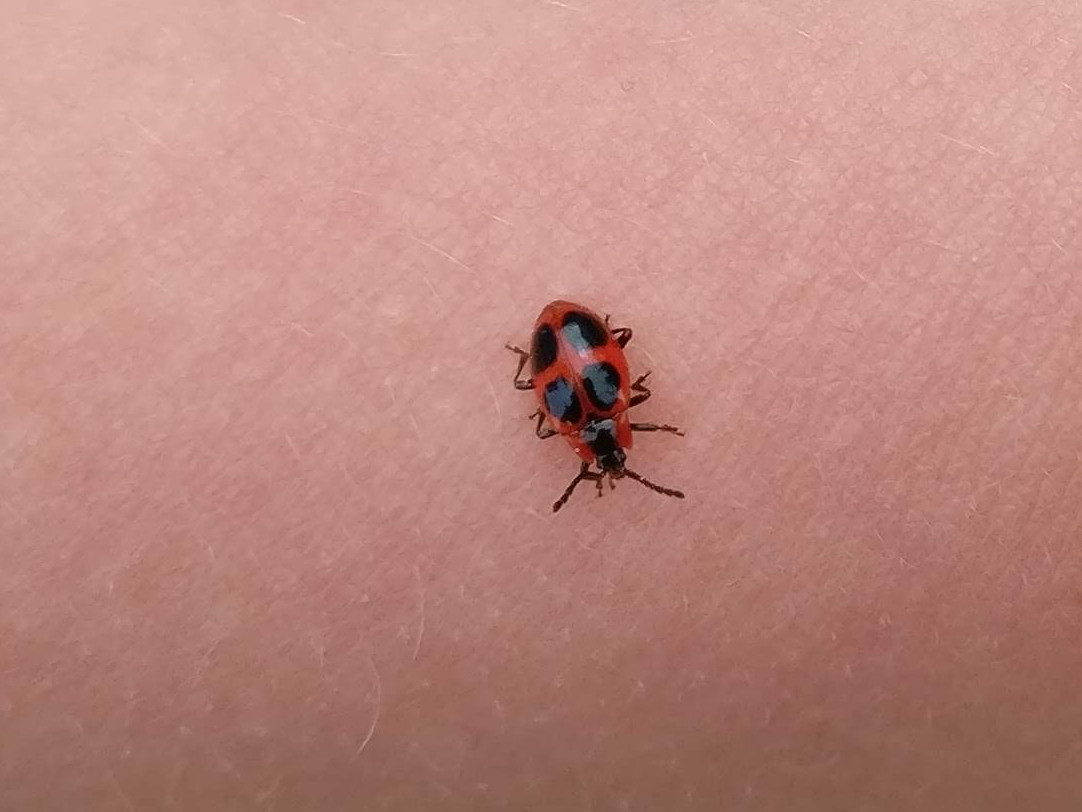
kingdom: Animalia
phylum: Arthropoda
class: Insecta
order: Coleoptera
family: Endomychidae
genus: Endomychus
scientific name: Endomychus coccineus
